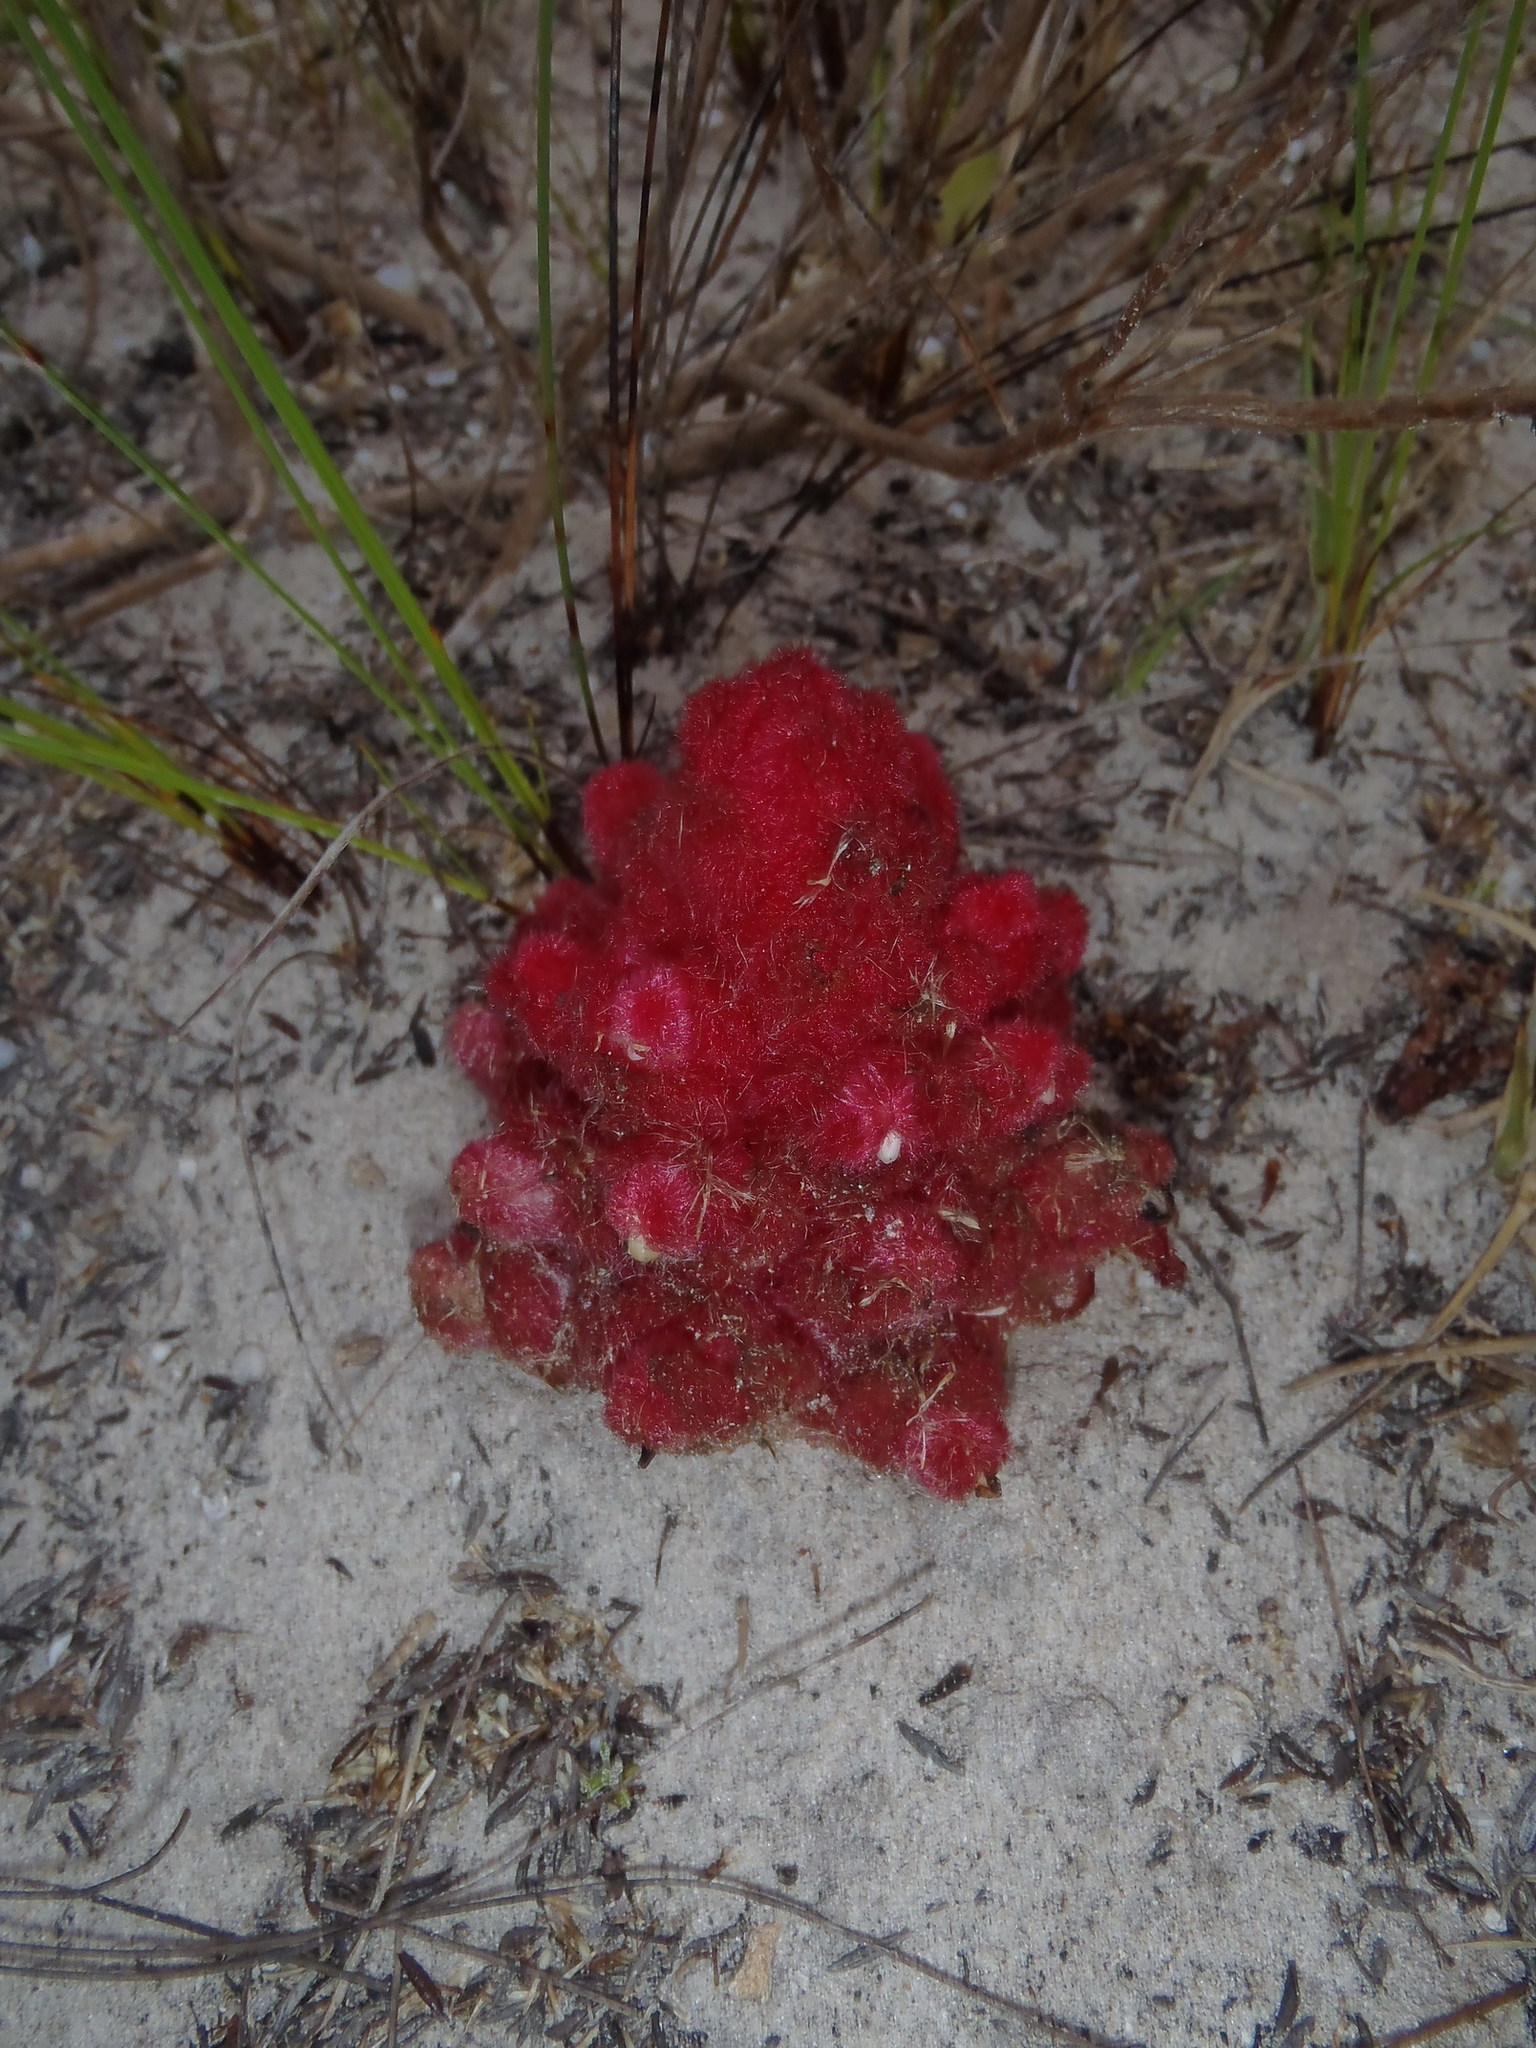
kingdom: Plantae
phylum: Tracheophyta
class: Magnoliopsida
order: Lamiales
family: Orobanchaceae
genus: Hyobanche
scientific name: Hyobanche sanguinea
